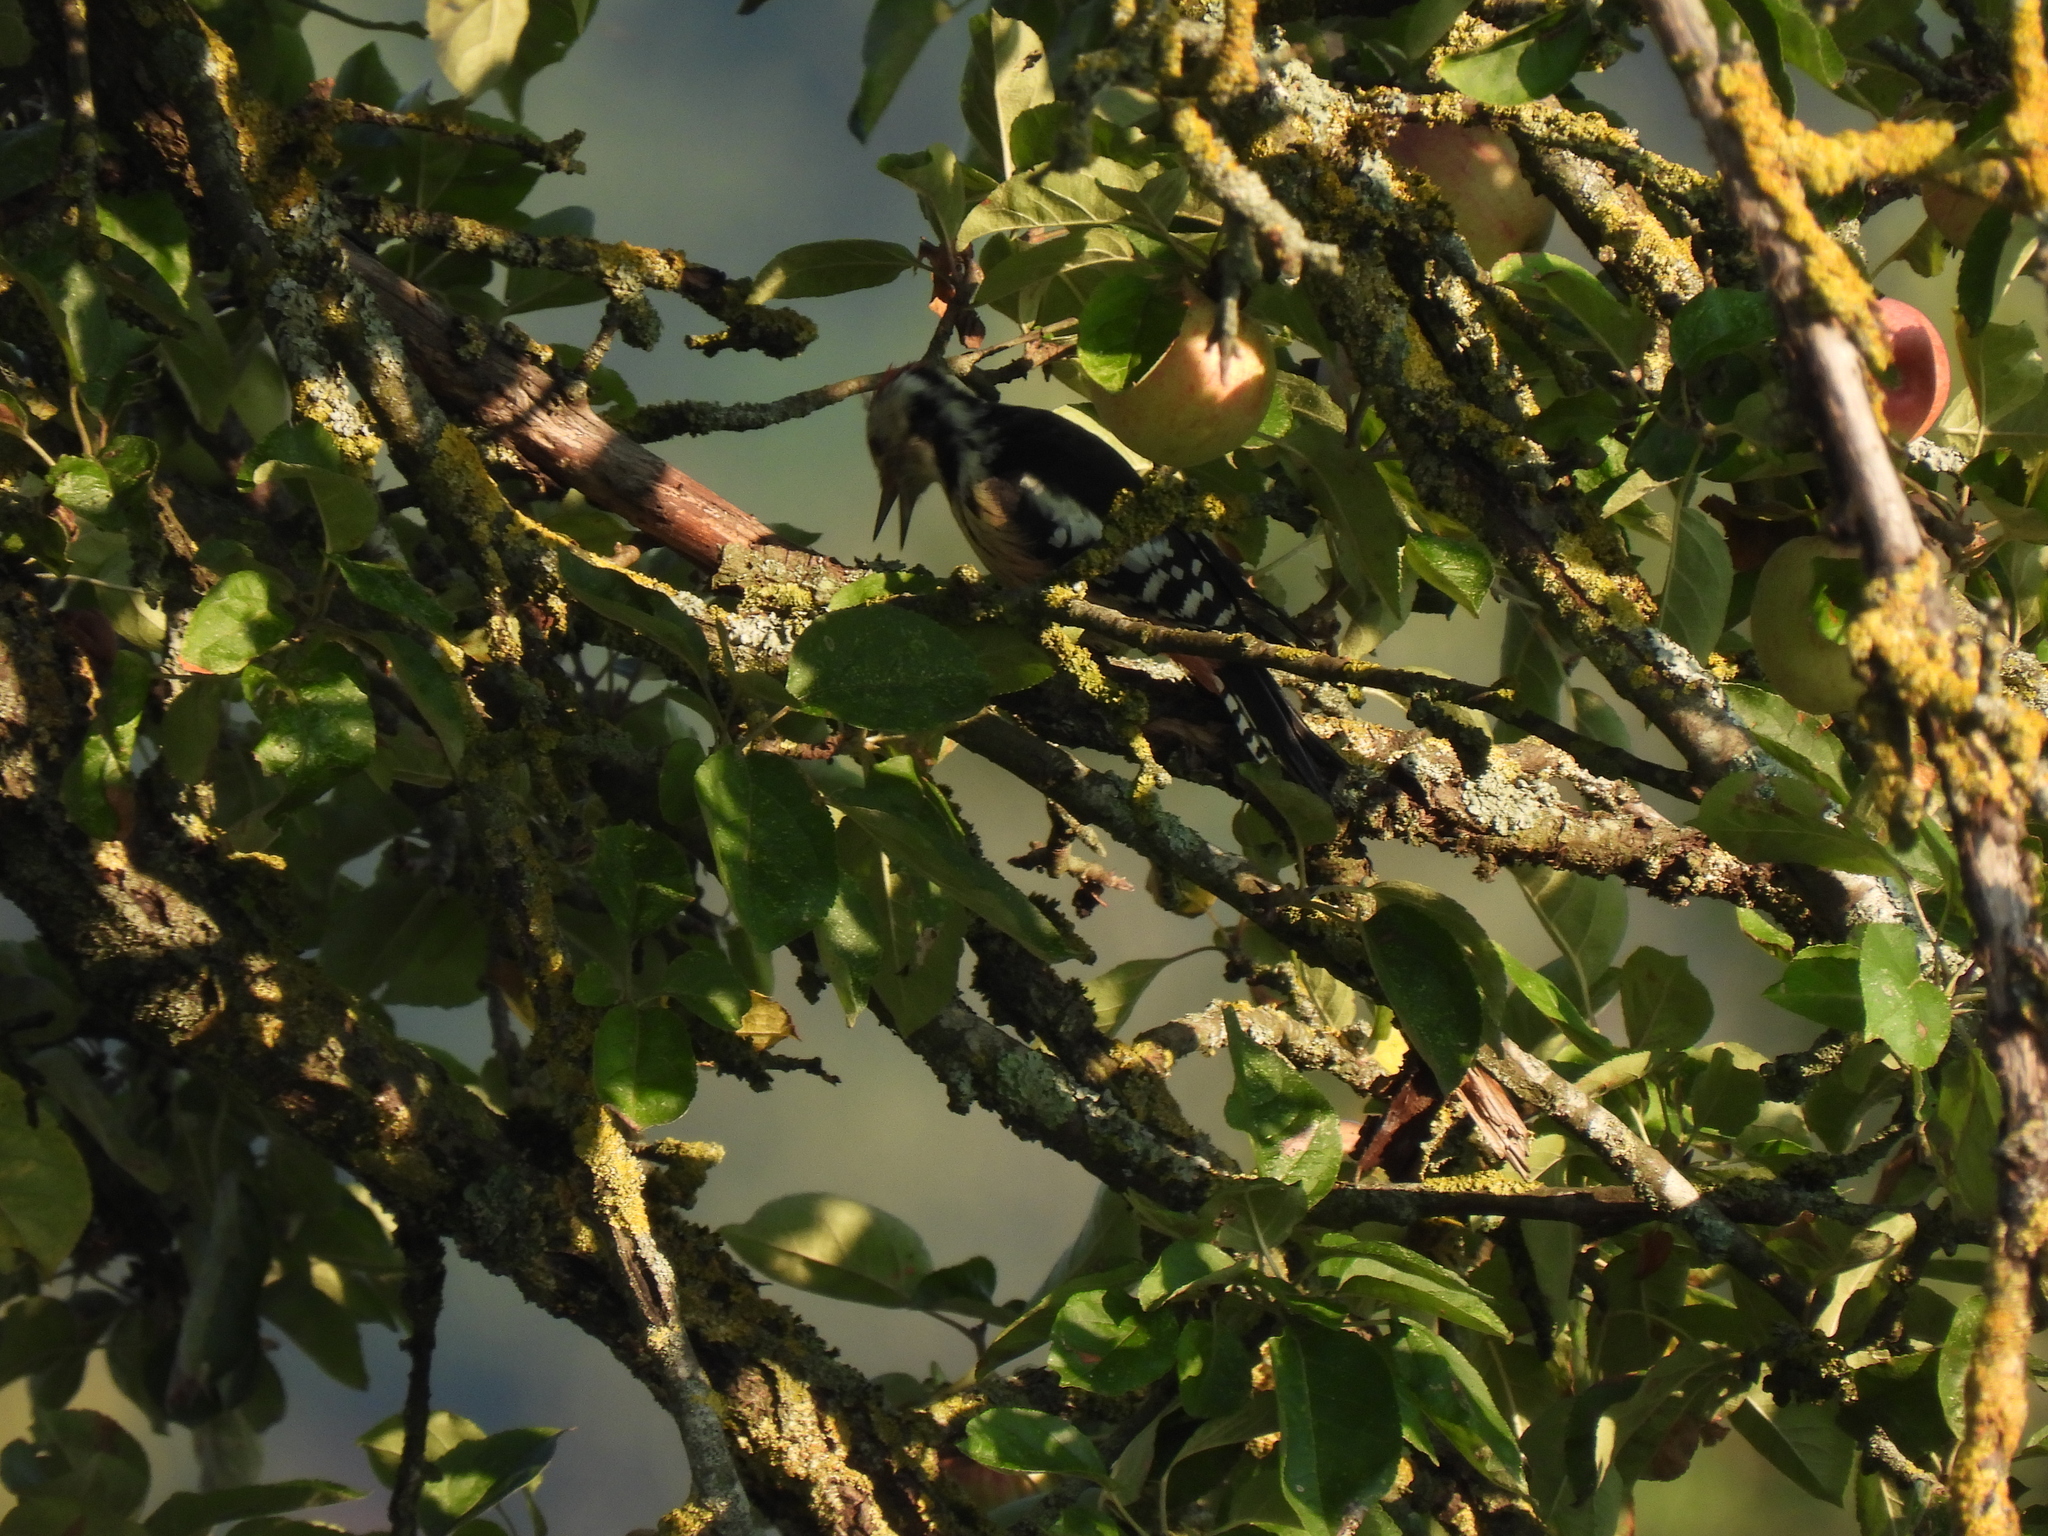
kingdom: Animalia
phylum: Chordata
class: Aves
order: Piciformes
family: Picidae
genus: Dendrocoptes
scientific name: Dendrocoptes medius
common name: Middle spotted woodpecker
